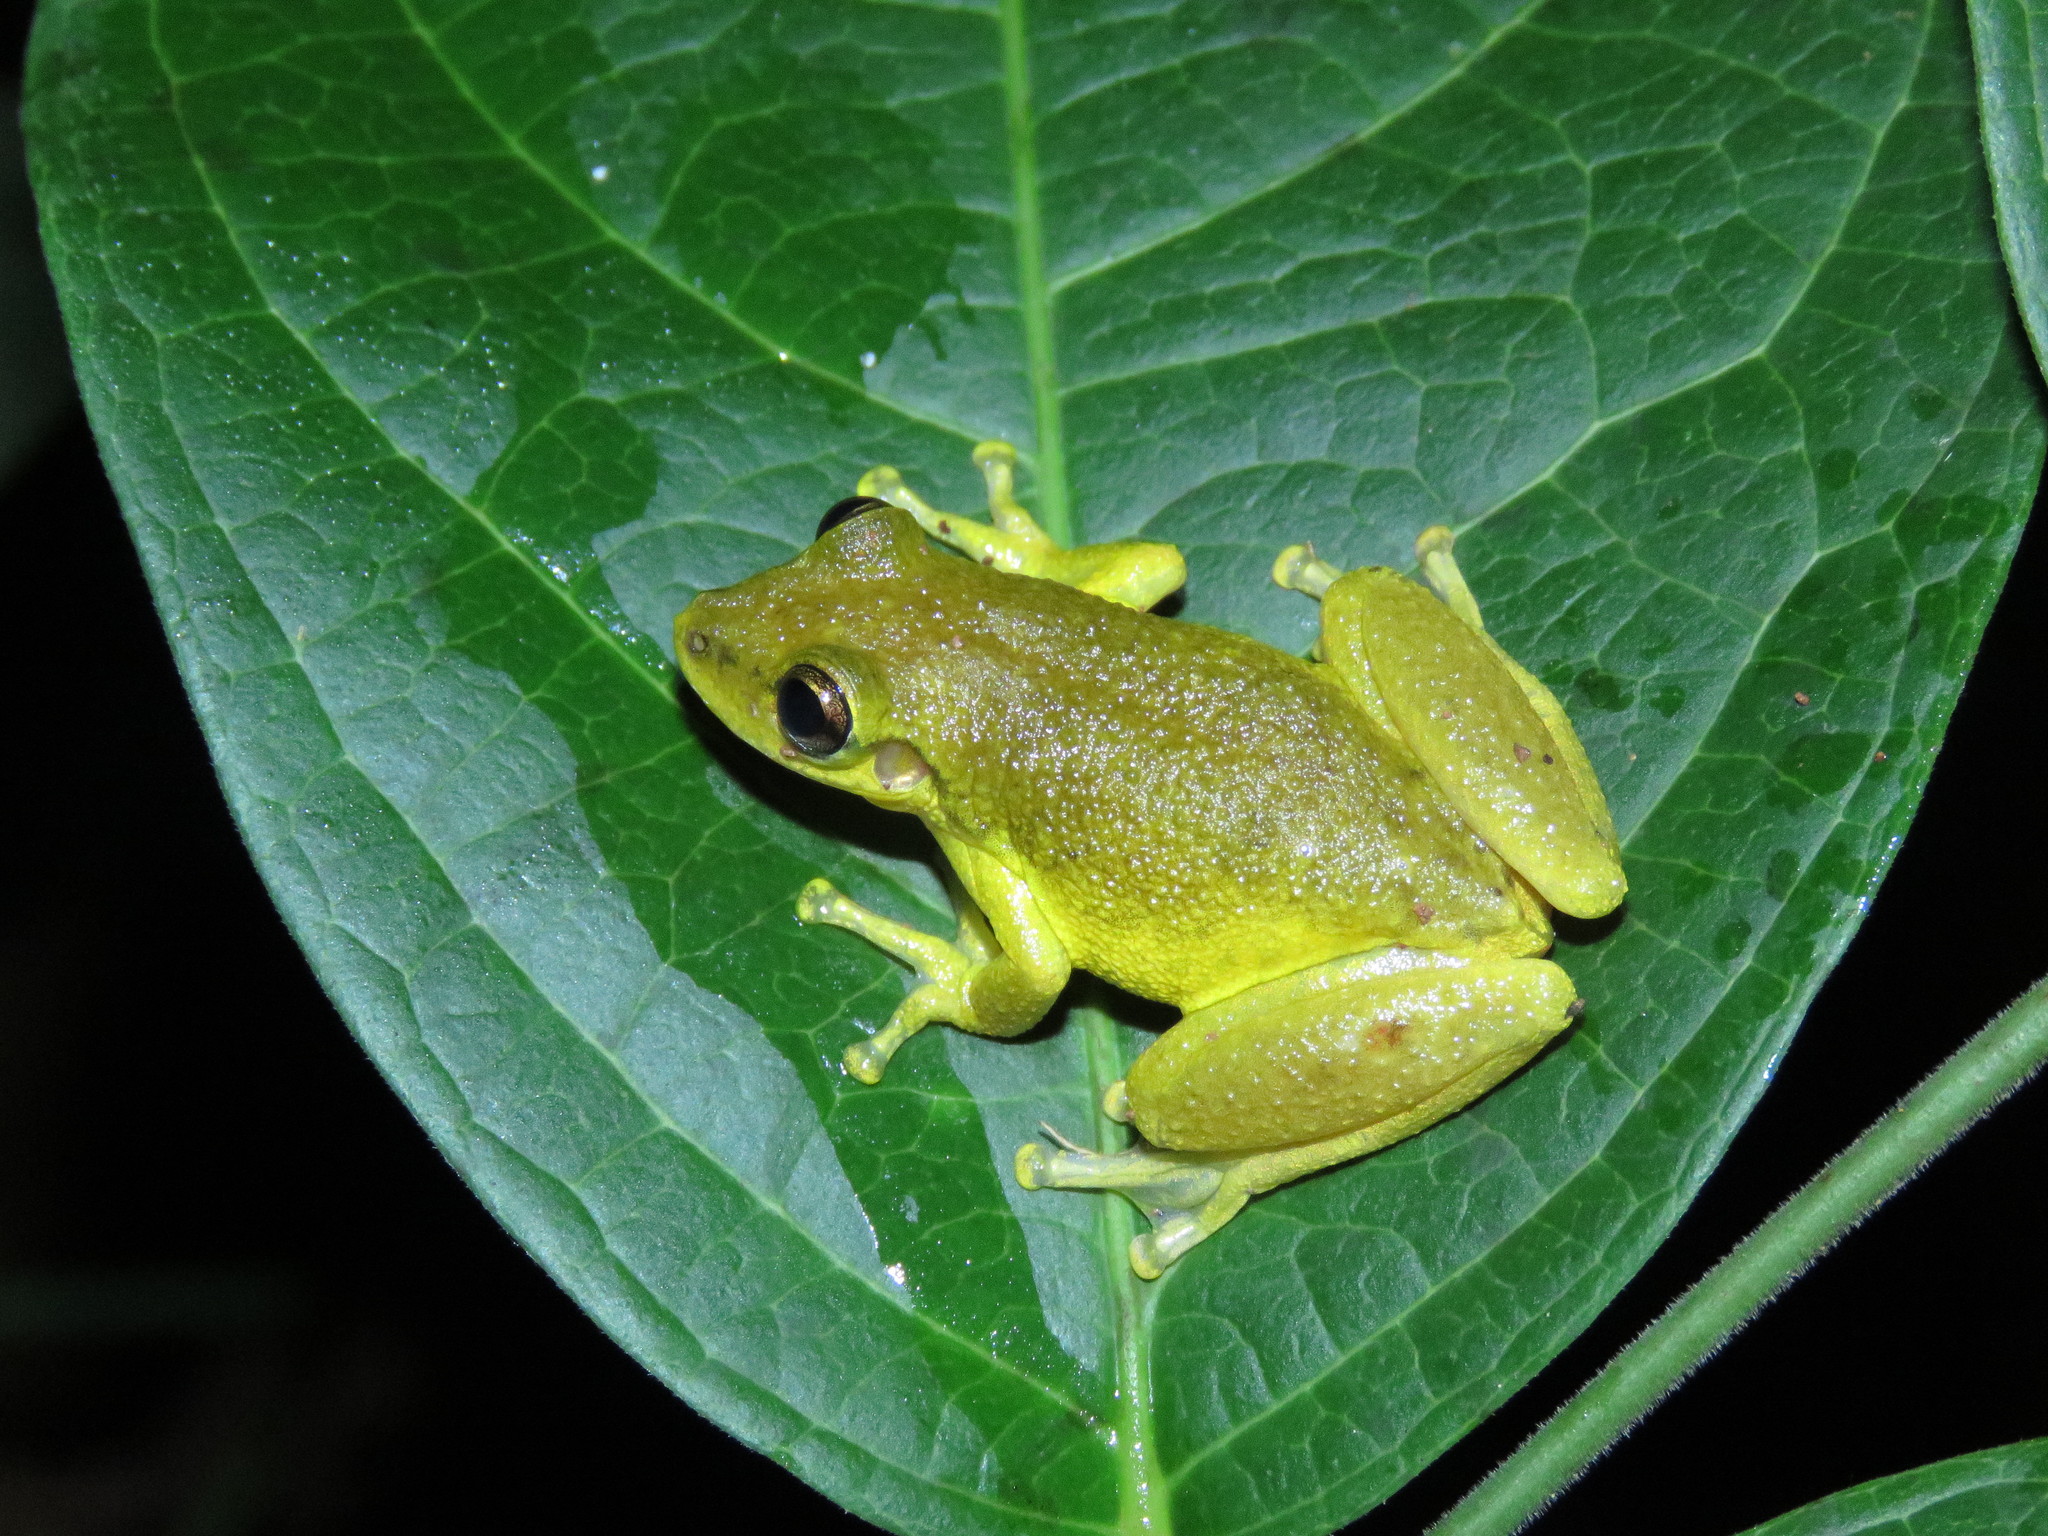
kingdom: Animalia
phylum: Chordata
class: Amphibia
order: Anura
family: Hylidae
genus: Scinax
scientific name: Scinax ruber
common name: Red snouted treefrog
